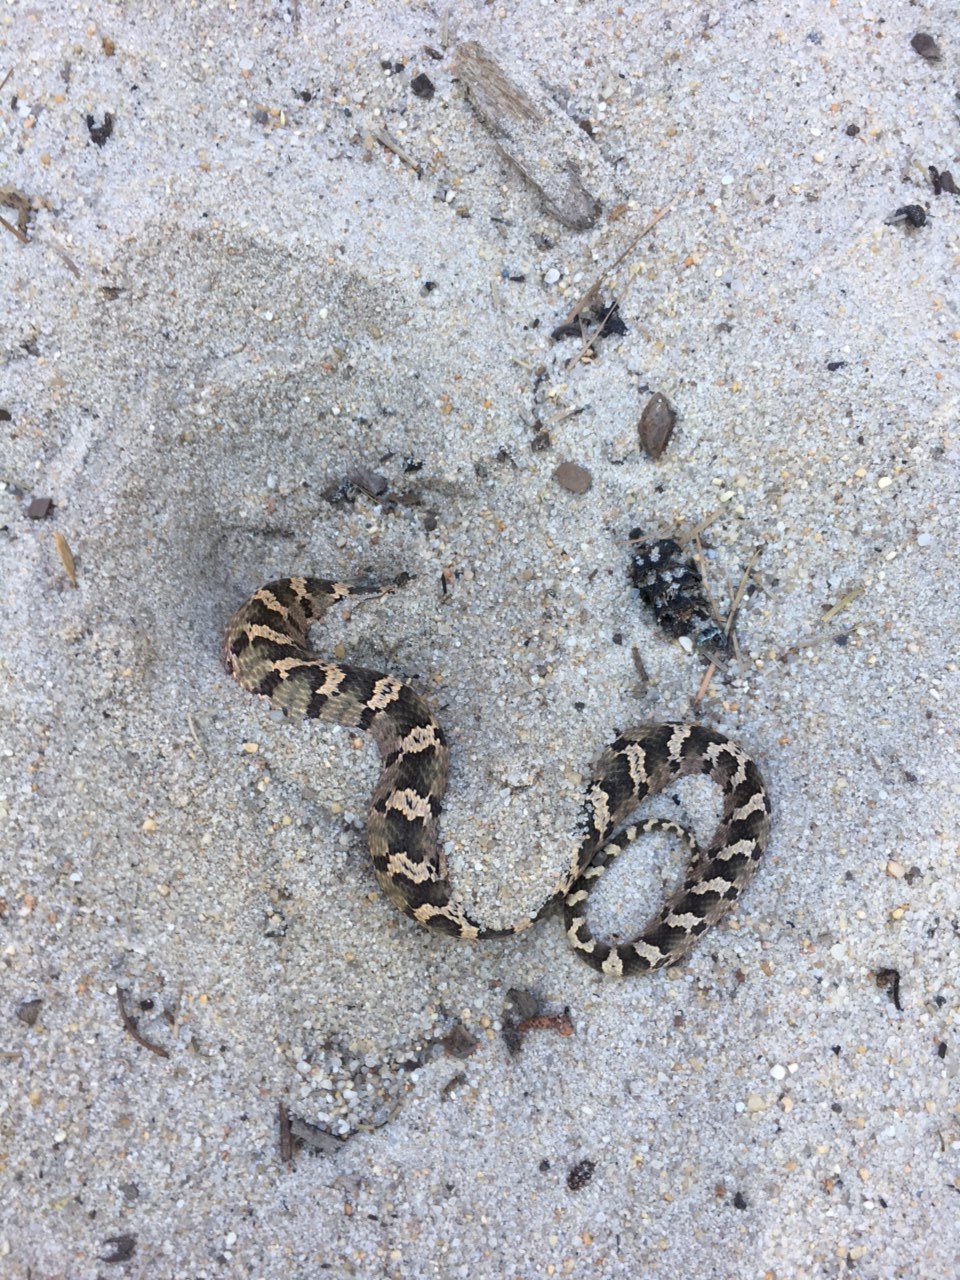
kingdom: Animalia
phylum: Chordata
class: Squamata
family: Colubridae
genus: Heterodon
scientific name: Heterodon platirhinos
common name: Eastern hognose snake
